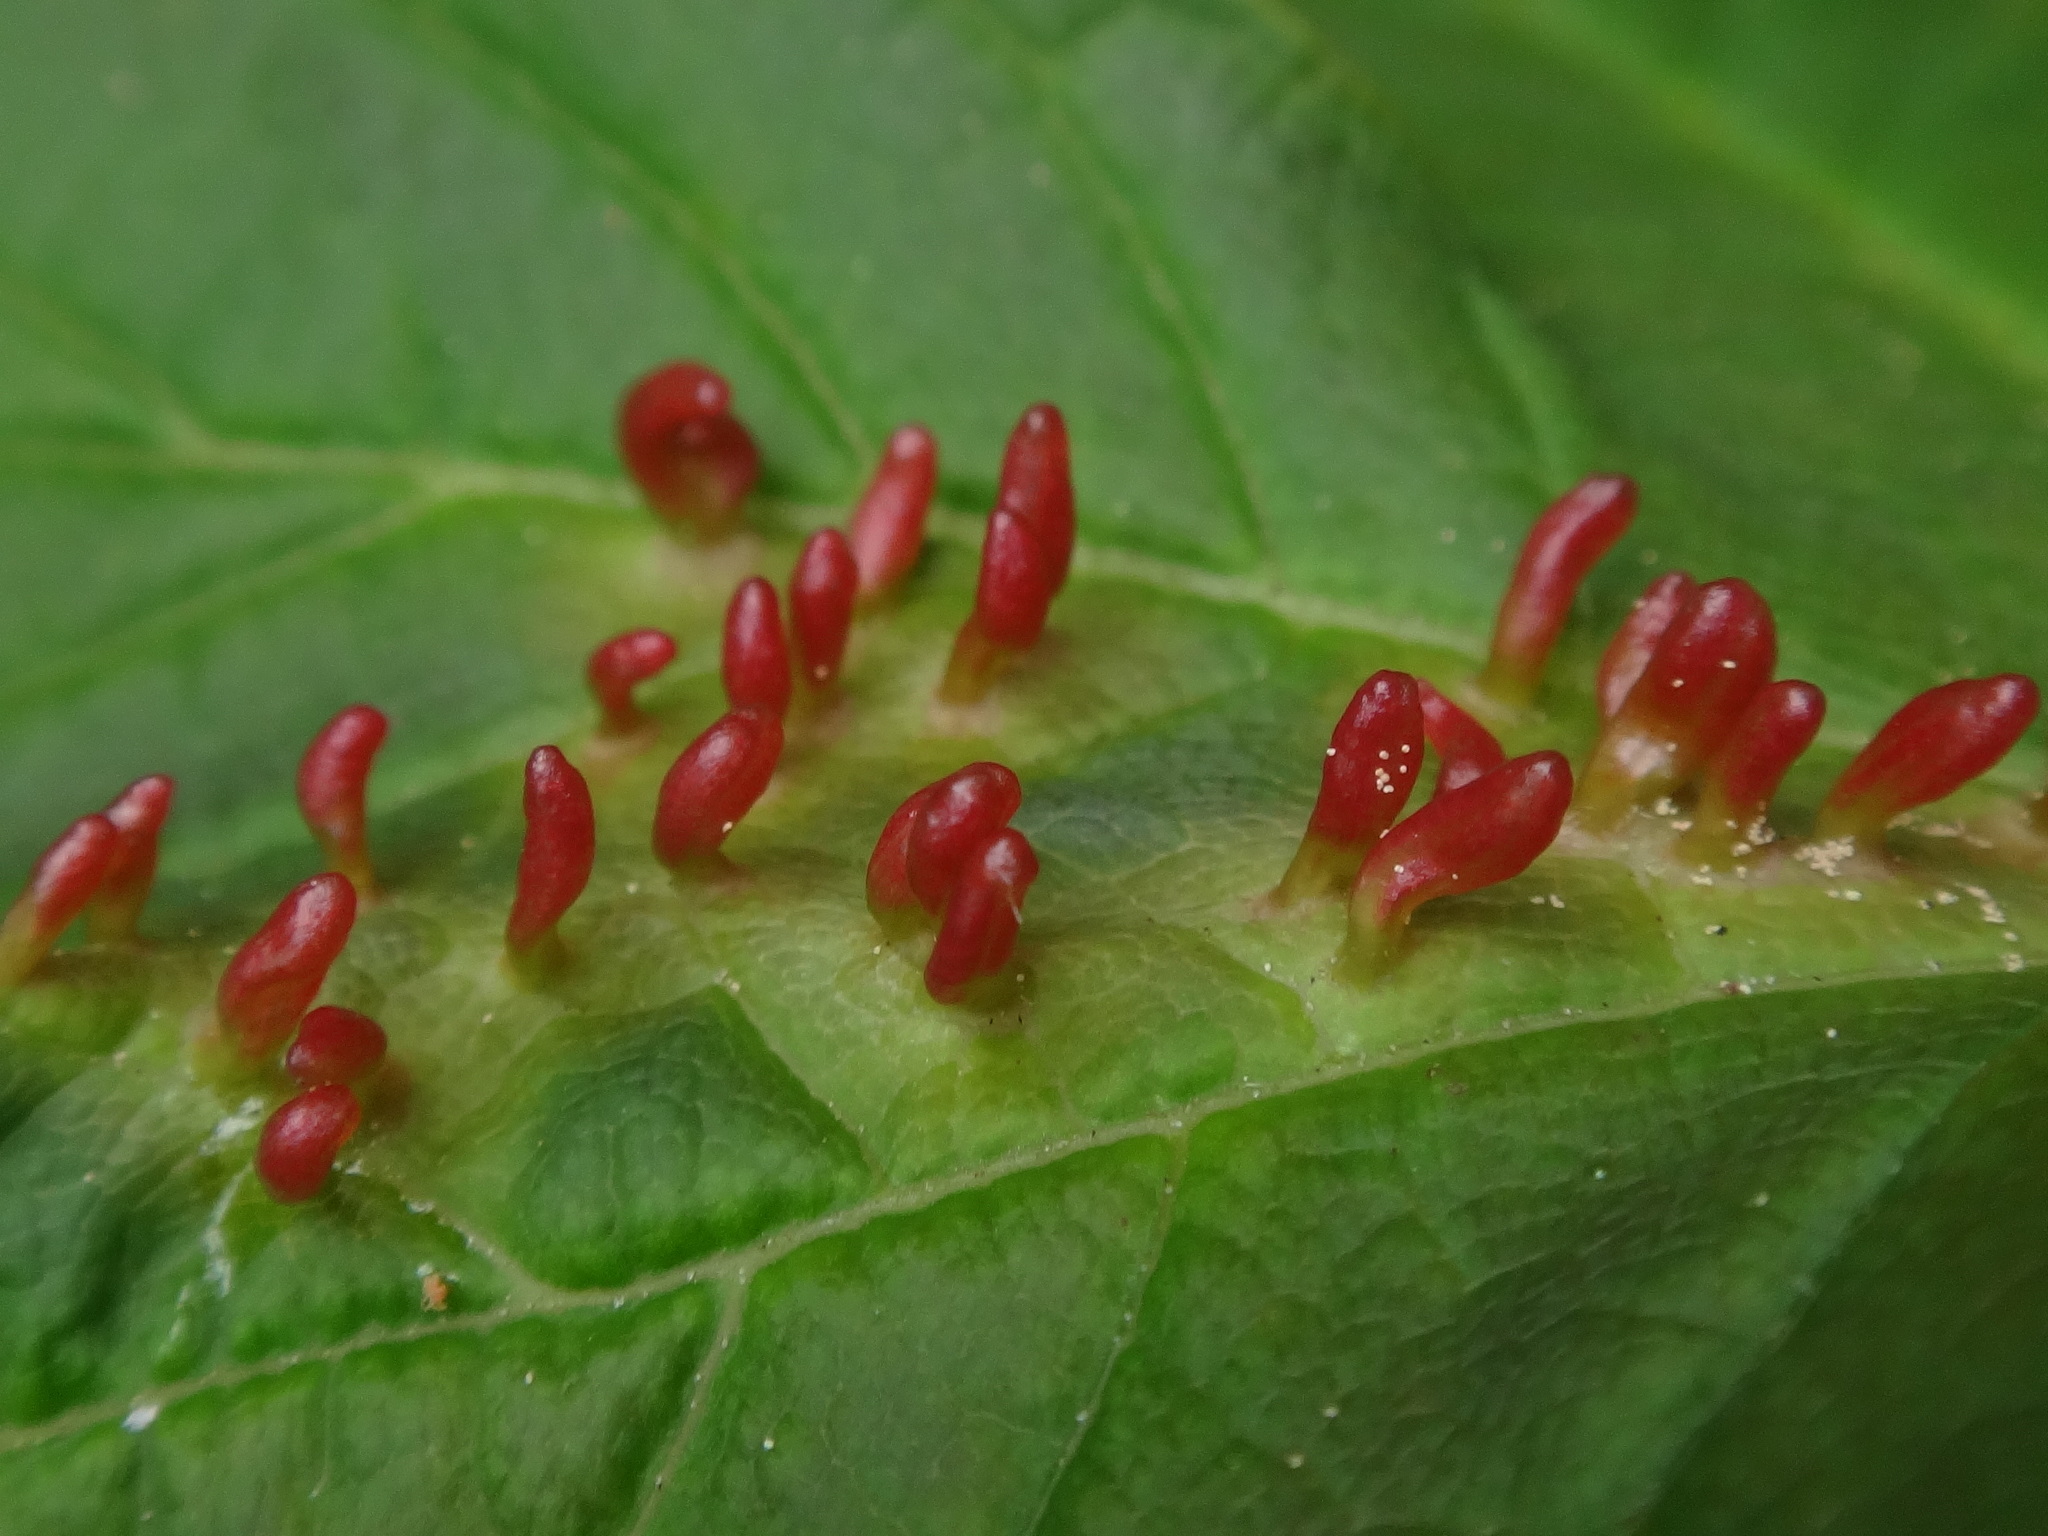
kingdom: Animalia
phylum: Arthropoda
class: Arachnida
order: Trombidiformes
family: Eriophyidae
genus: Aceria
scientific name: Aceria macrorhynchus
